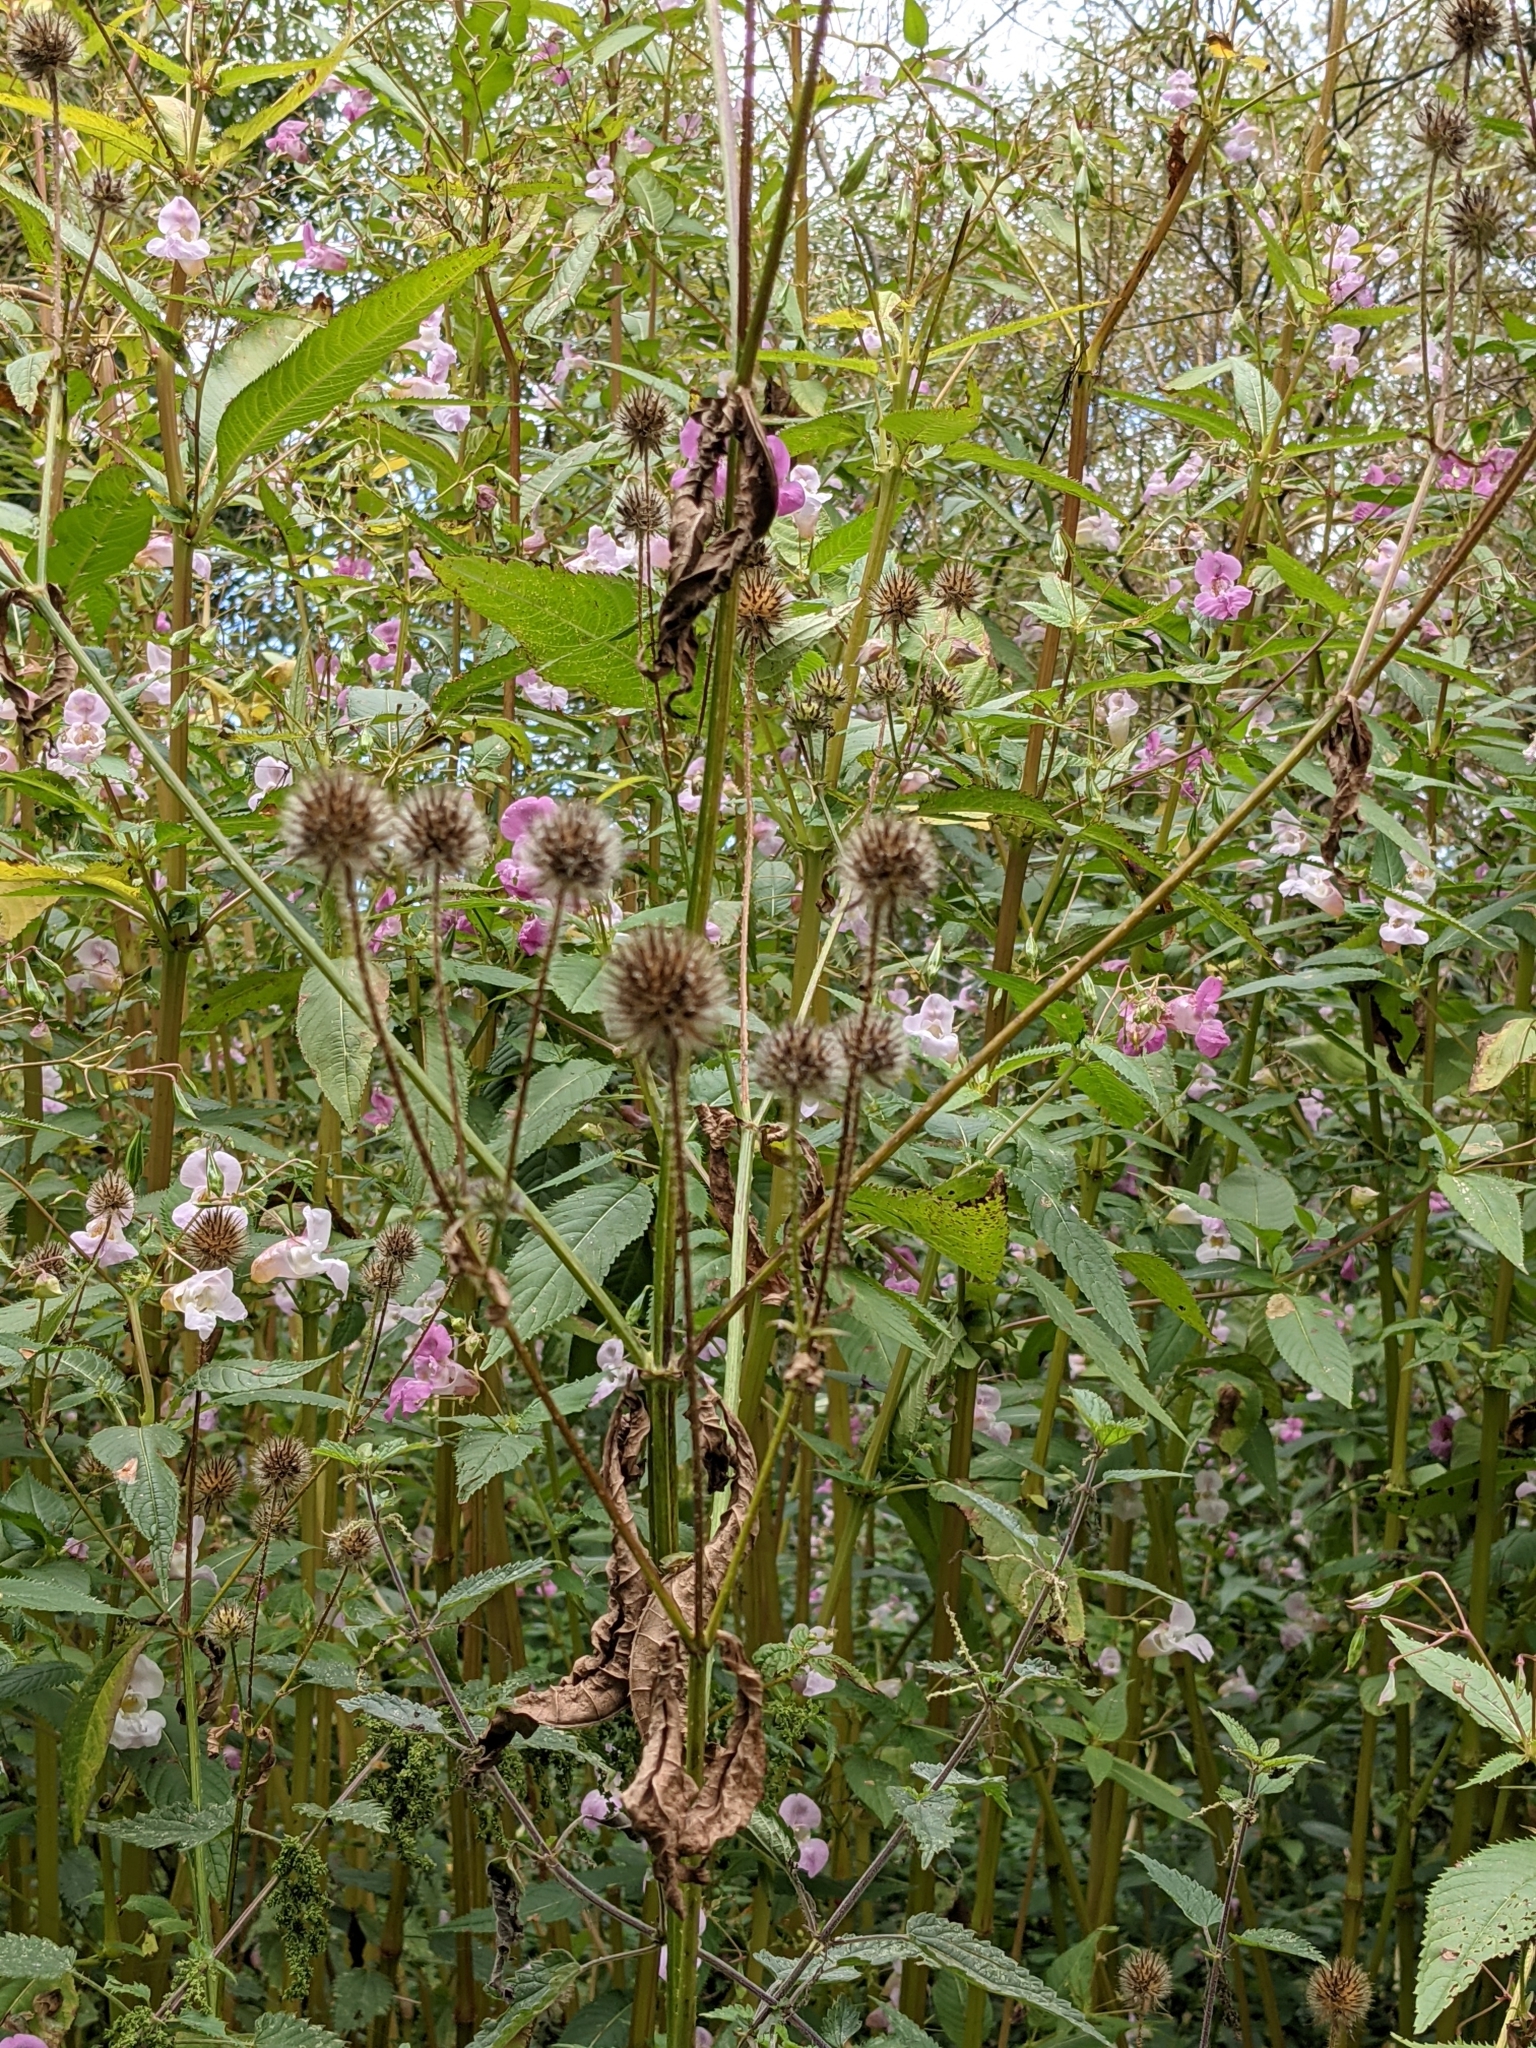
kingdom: Plantae
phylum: Tracheophyta
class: Magnoliopsida
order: Dipsacales
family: Caprifoliaceae
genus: Dipsacus
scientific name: Dipsacus pilosus
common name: Small teasel
